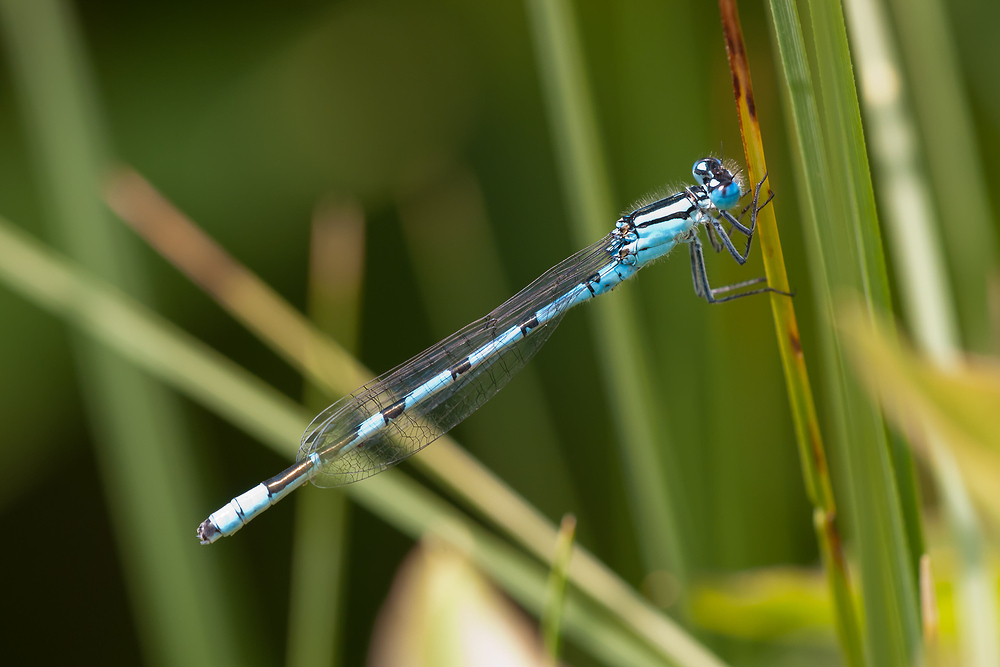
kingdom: Animalia
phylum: Arthropoda
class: Insecta
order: Odonata
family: Coenagrionidae
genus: Enallagma
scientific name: Enallagma cyathigerum
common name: Common blue damselfly
